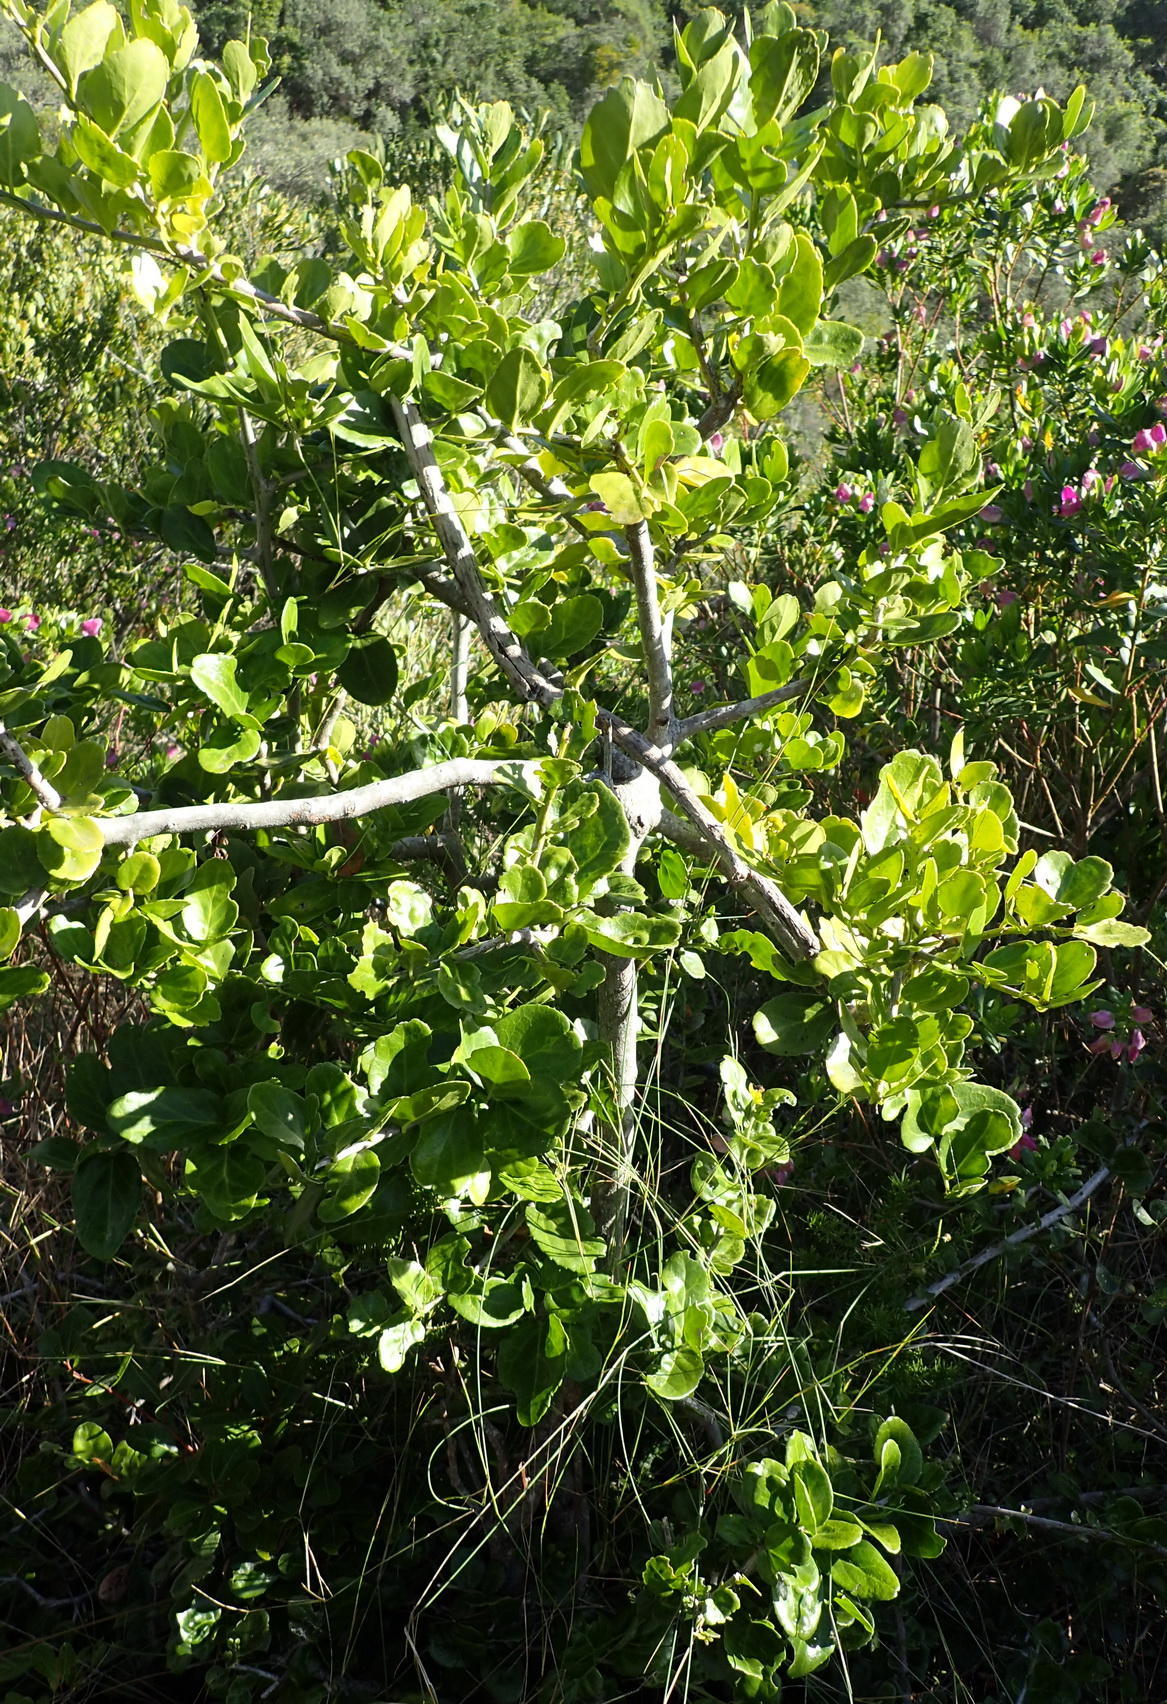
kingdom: Plantae
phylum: Tracheophyta
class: Magnoliopsida
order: Celastrales
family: Celastraceae
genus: Mystroxylon
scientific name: Mystroxylon aethiopicum
